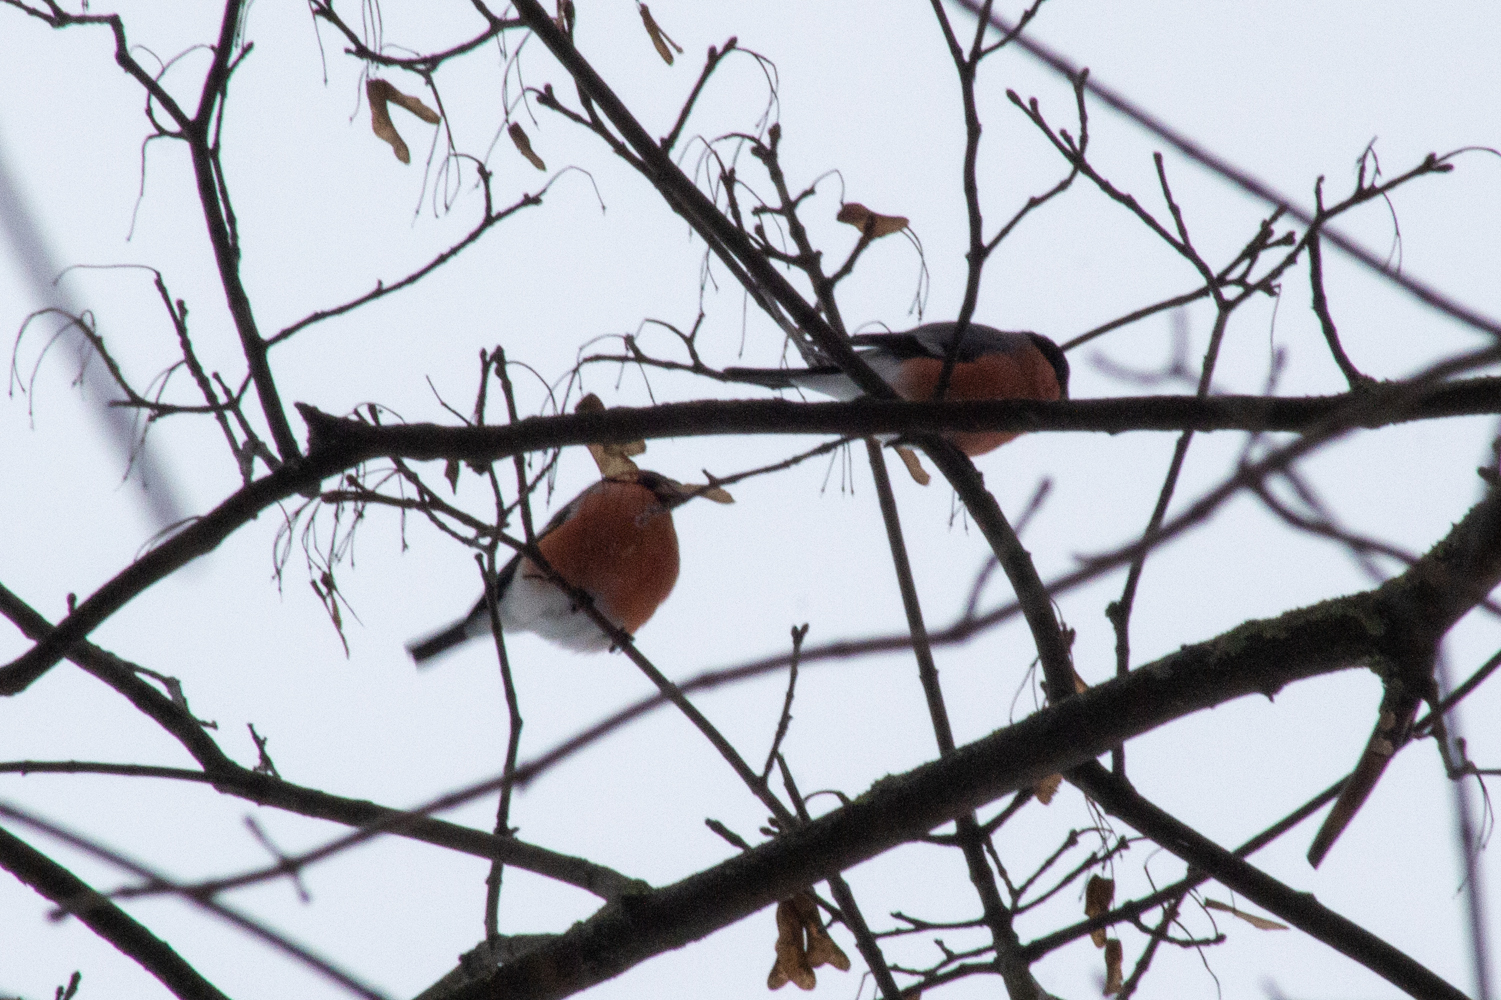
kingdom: Animalia
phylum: Chordata
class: Aves
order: Passeriformes
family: Fringillidae
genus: Pyrrhula
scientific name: Pyrrhula pyrrhula
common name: Eurasian bullfinch
